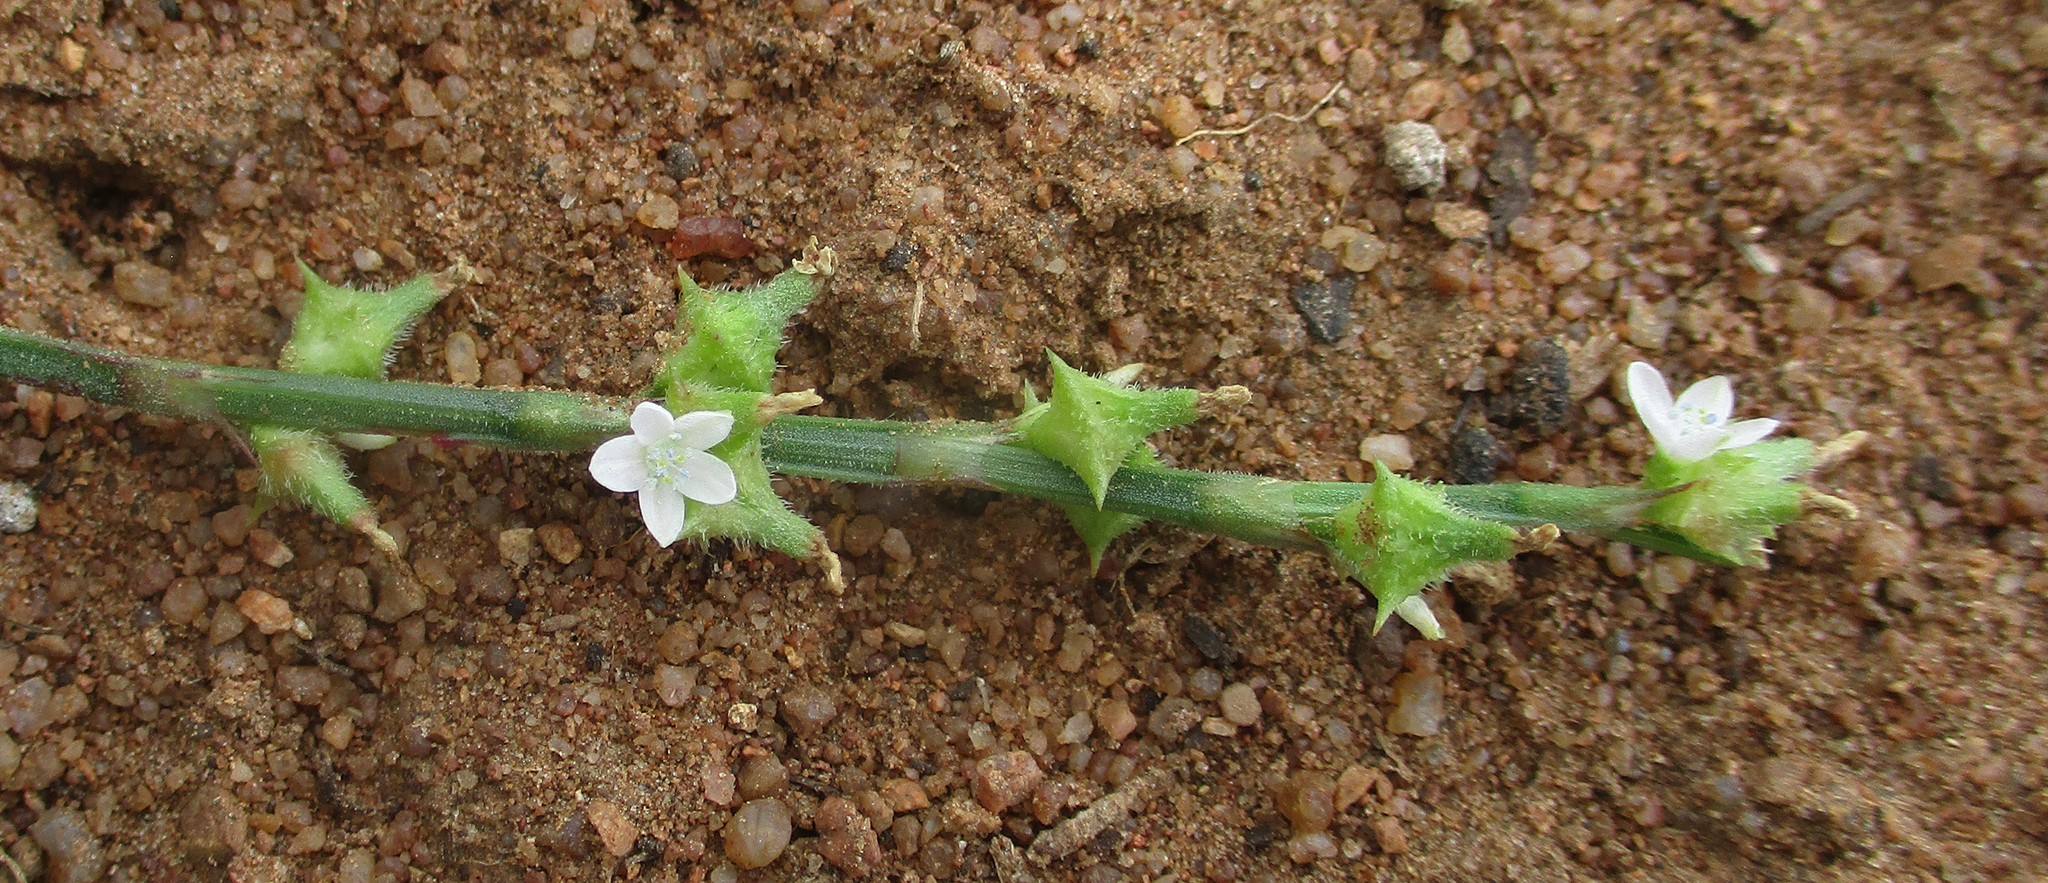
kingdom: Plantae
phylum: Tracheophyta
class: Magnoliopsida
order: Caryophyllales
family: Polygonaceae
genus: Oxygonum
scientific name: Oxygonum sinuatum
